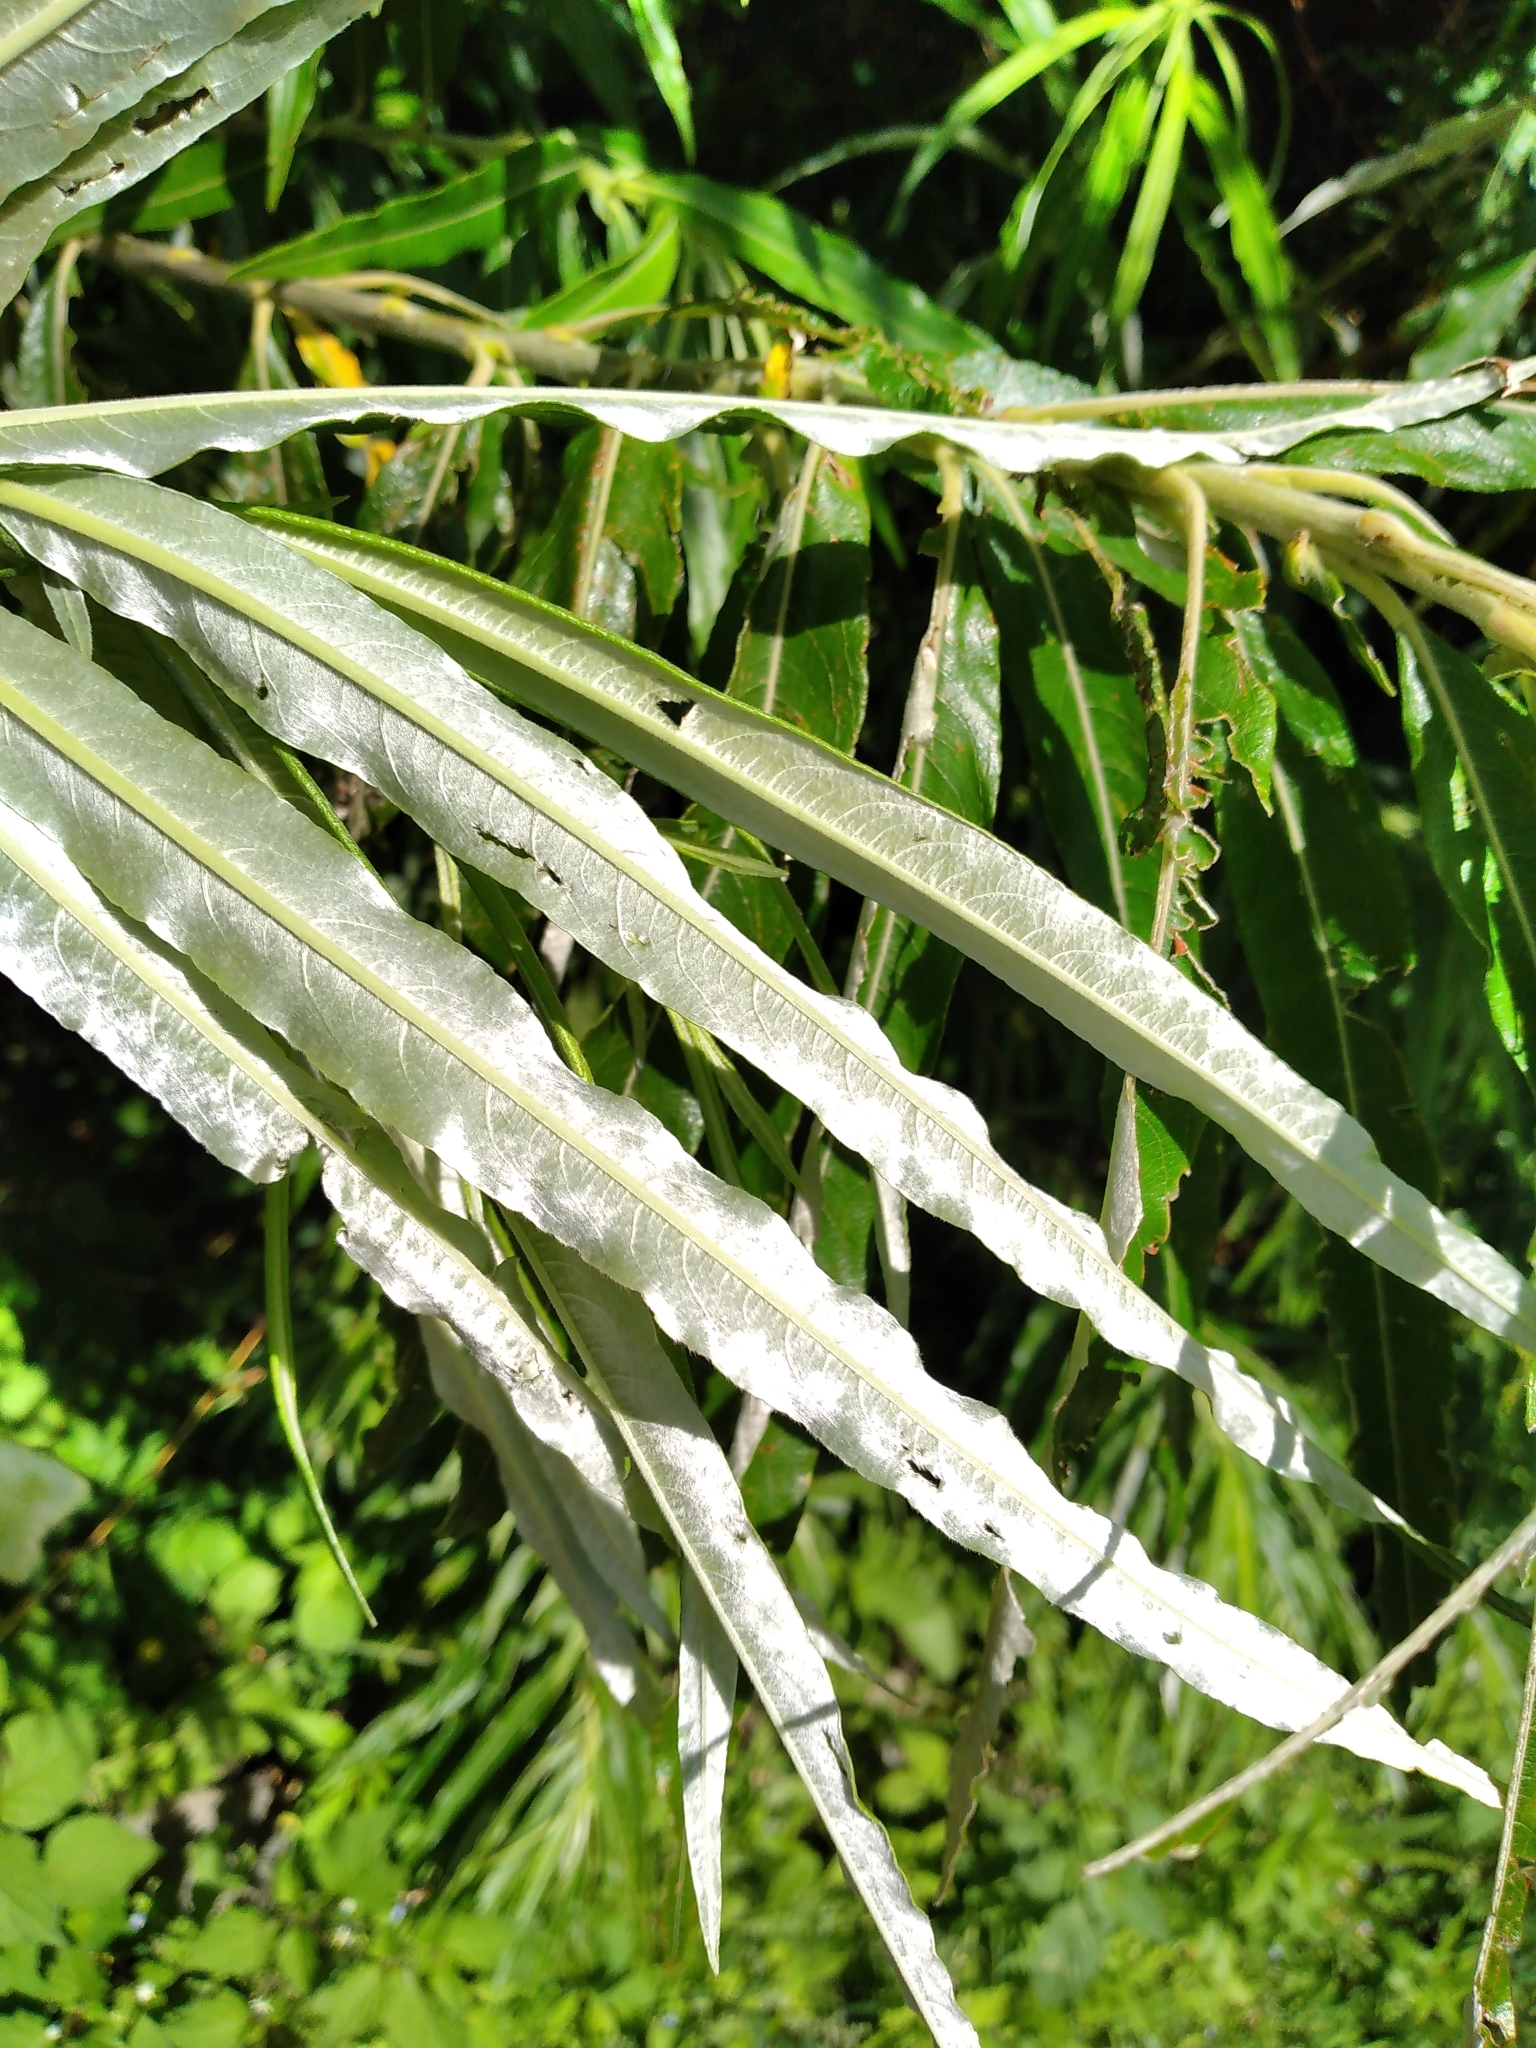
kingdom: Plantae
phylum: Tracheophyta
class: Magnoliopsida
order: Malpighiales
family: Salicaceae
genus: Salix
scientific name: Salix viminalis
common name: Osier
